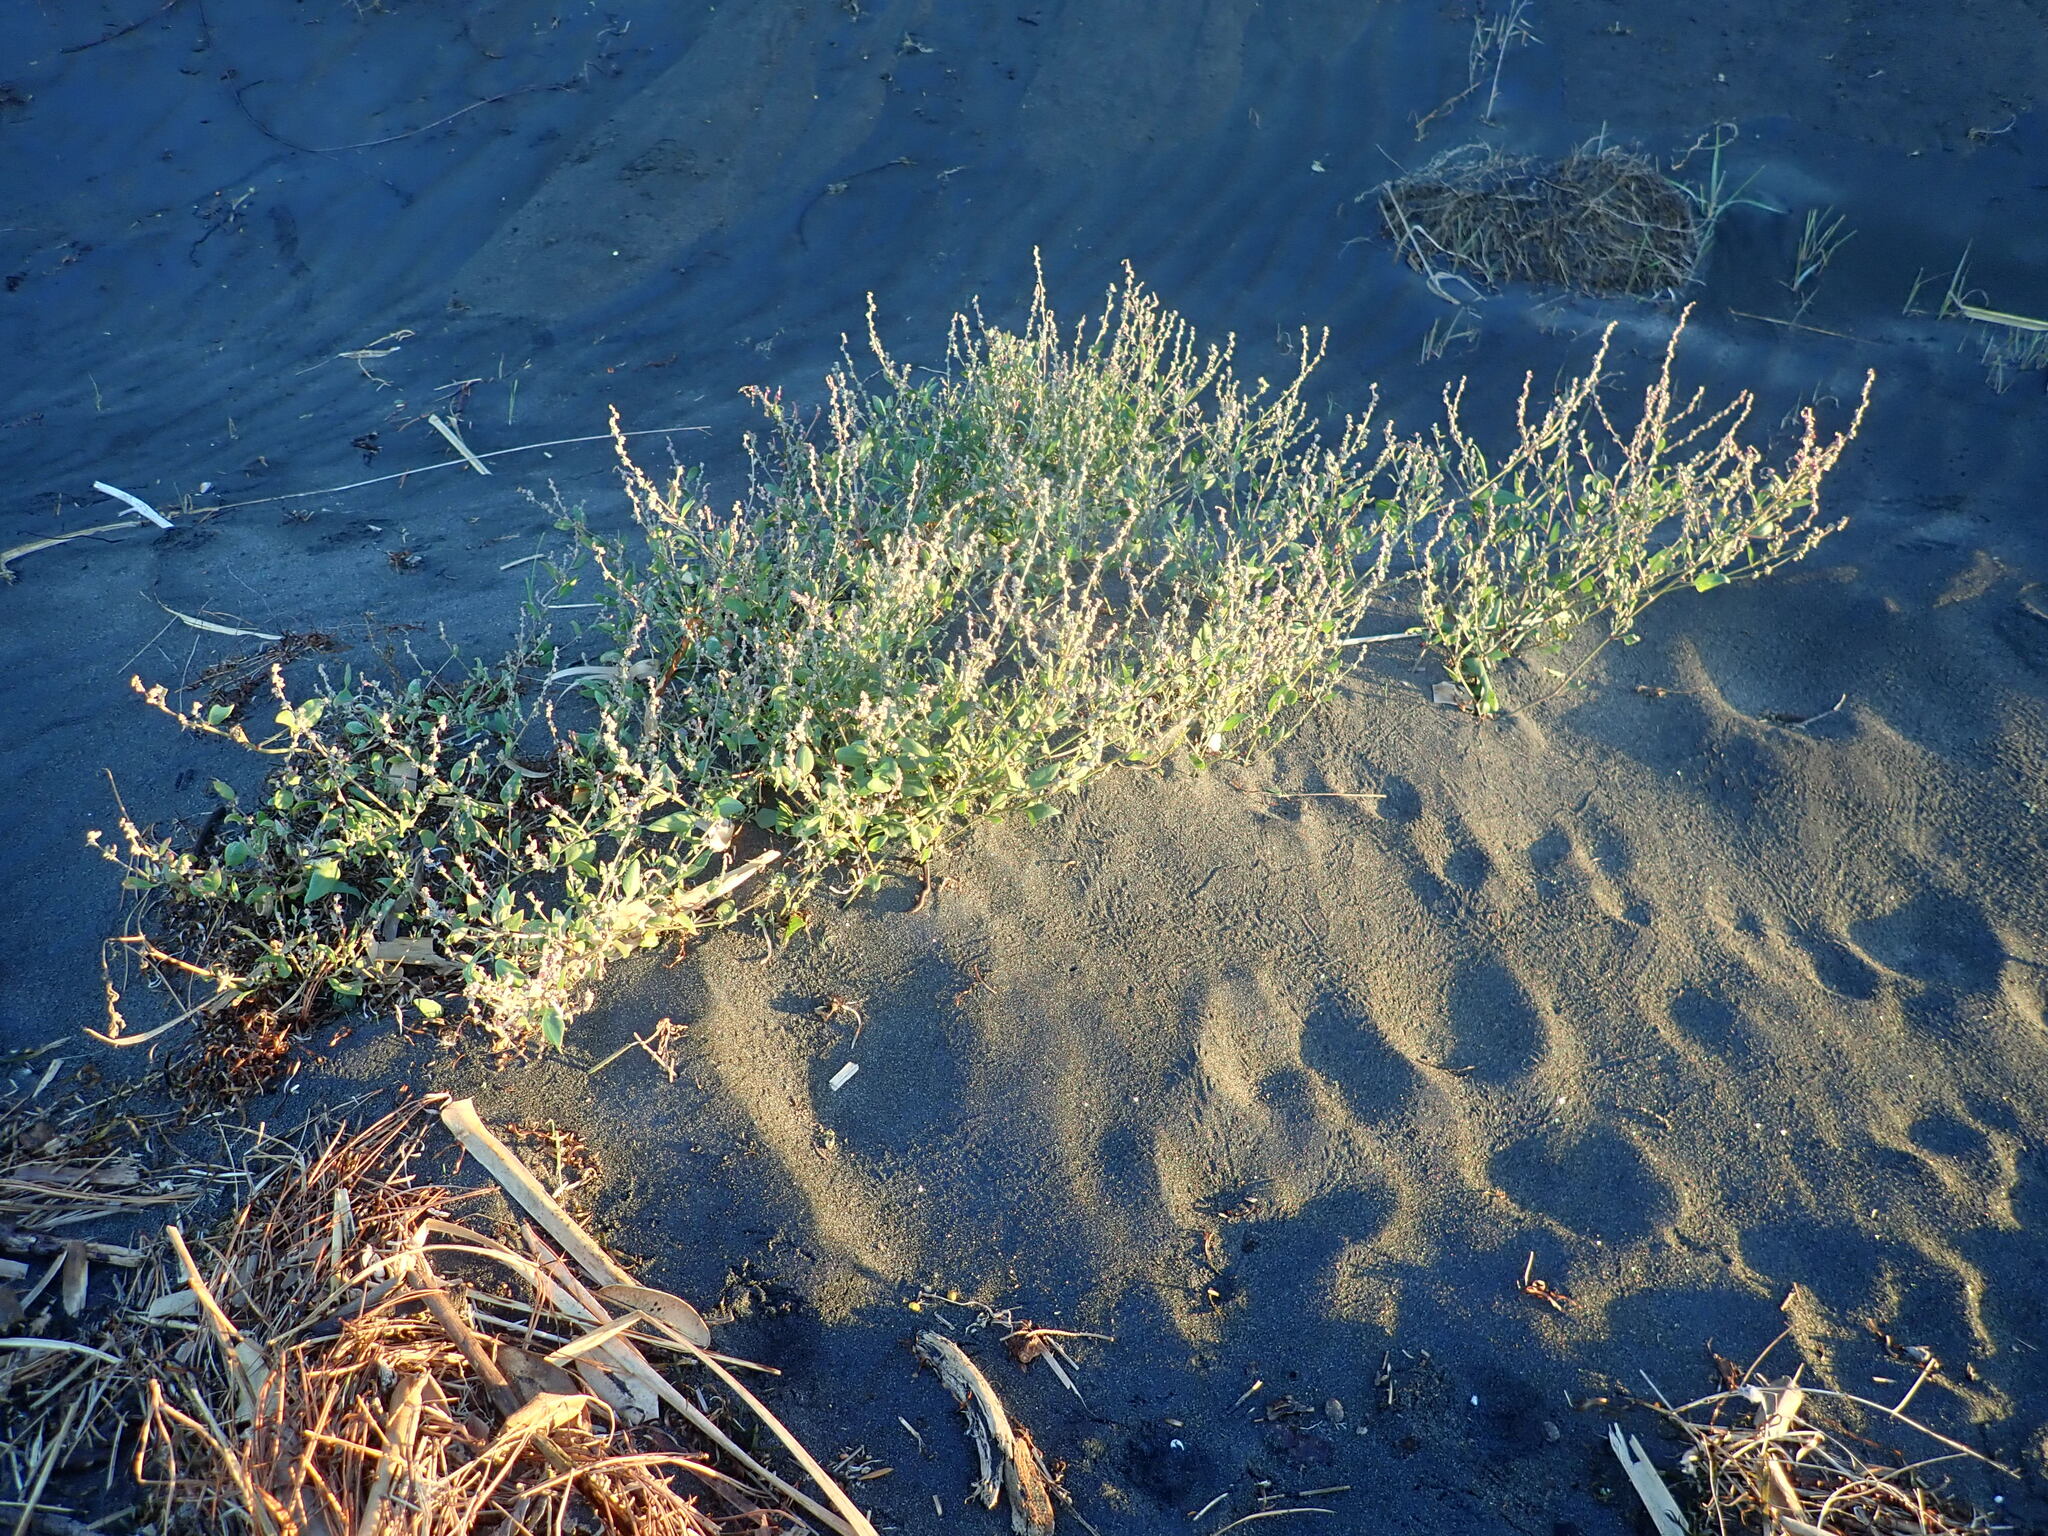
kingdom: Plantae
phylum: Tracheophyta
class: Magnoliopsida
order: Caryophyllales
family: Amaranthaceae
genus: Atriplex
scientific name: Atriplex prostrata
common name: Spear-leaved orache
